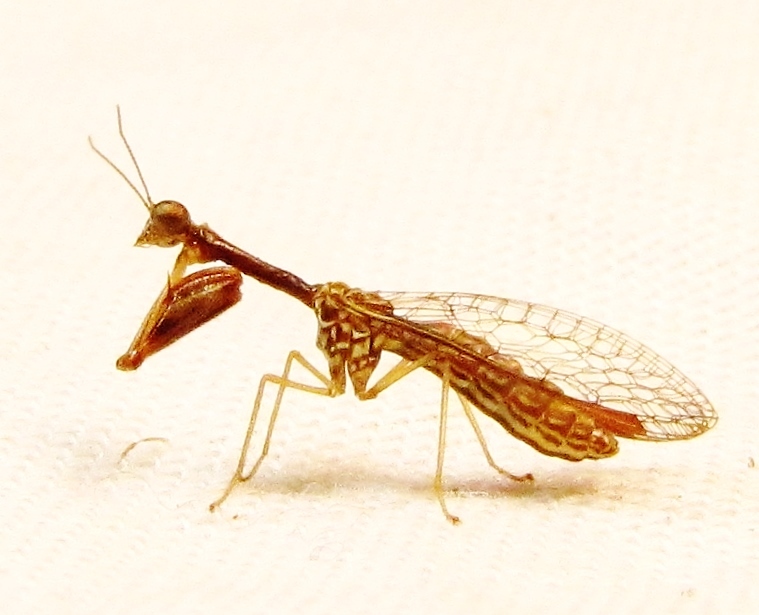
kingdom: Animalia
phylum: Arthropoda
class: Insecta
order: Neuroptera
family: Mantispidae
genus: Leptomantispa
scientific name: Leptomantispa pulchella
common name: Stevens's mantidfly
